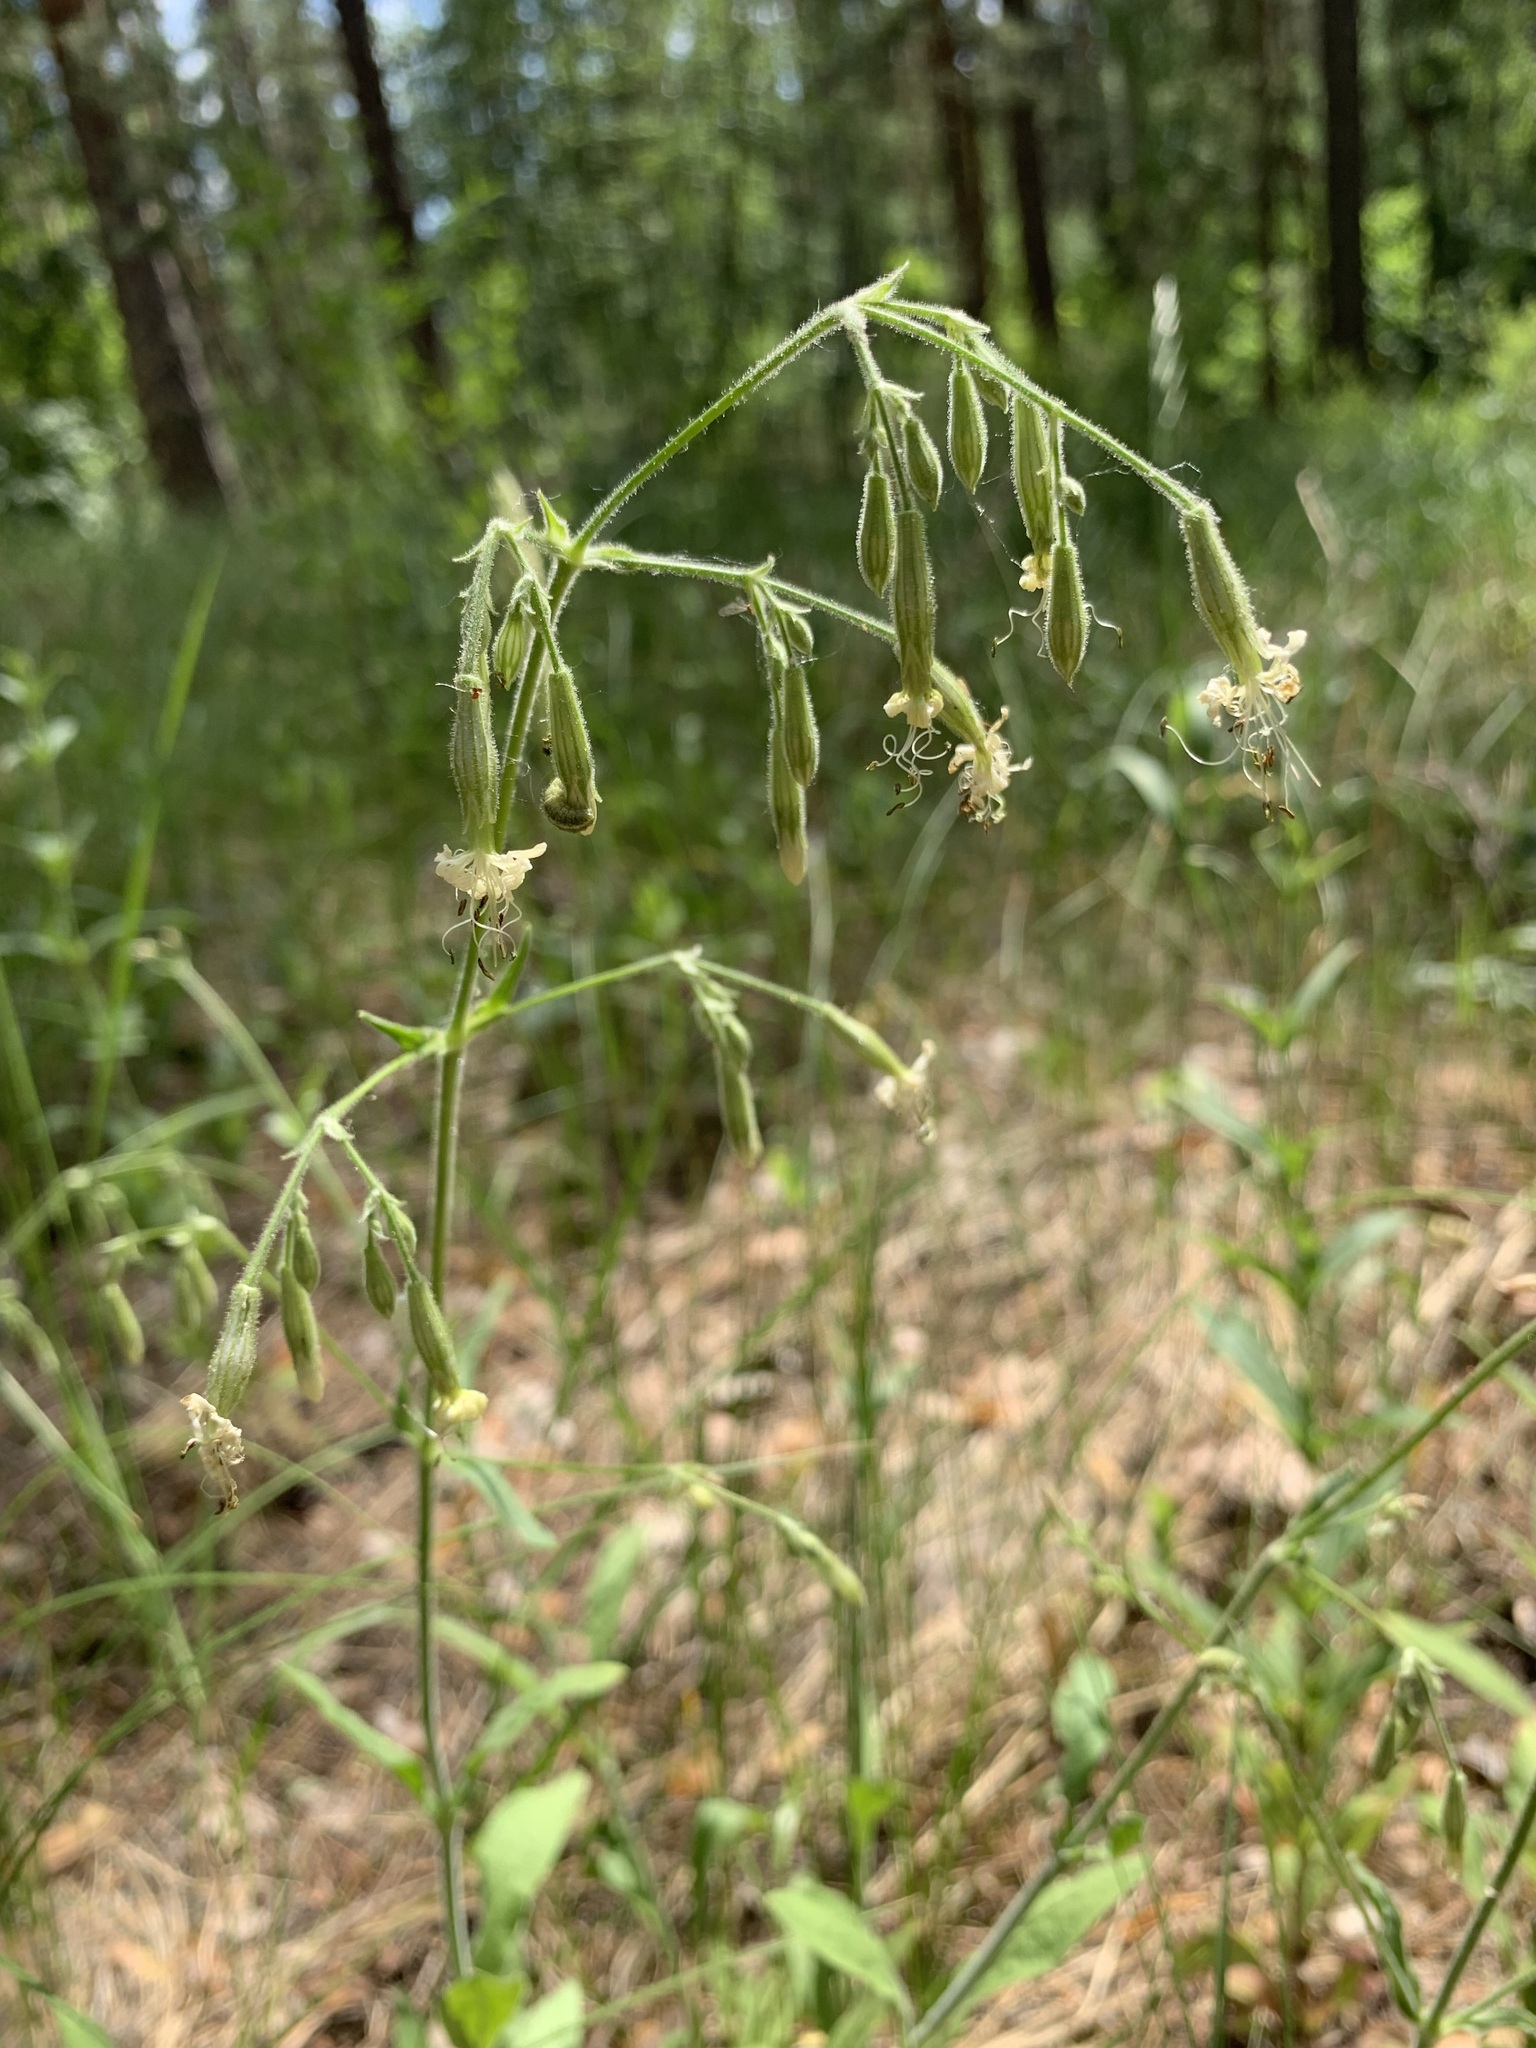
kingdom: Plantae
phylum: Tracheophyta
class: Magnoliopsida
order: Caryophyllales
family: Caryophyllaceae
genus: Silene
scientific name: Silene nutans
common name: Nottingham catchfly
